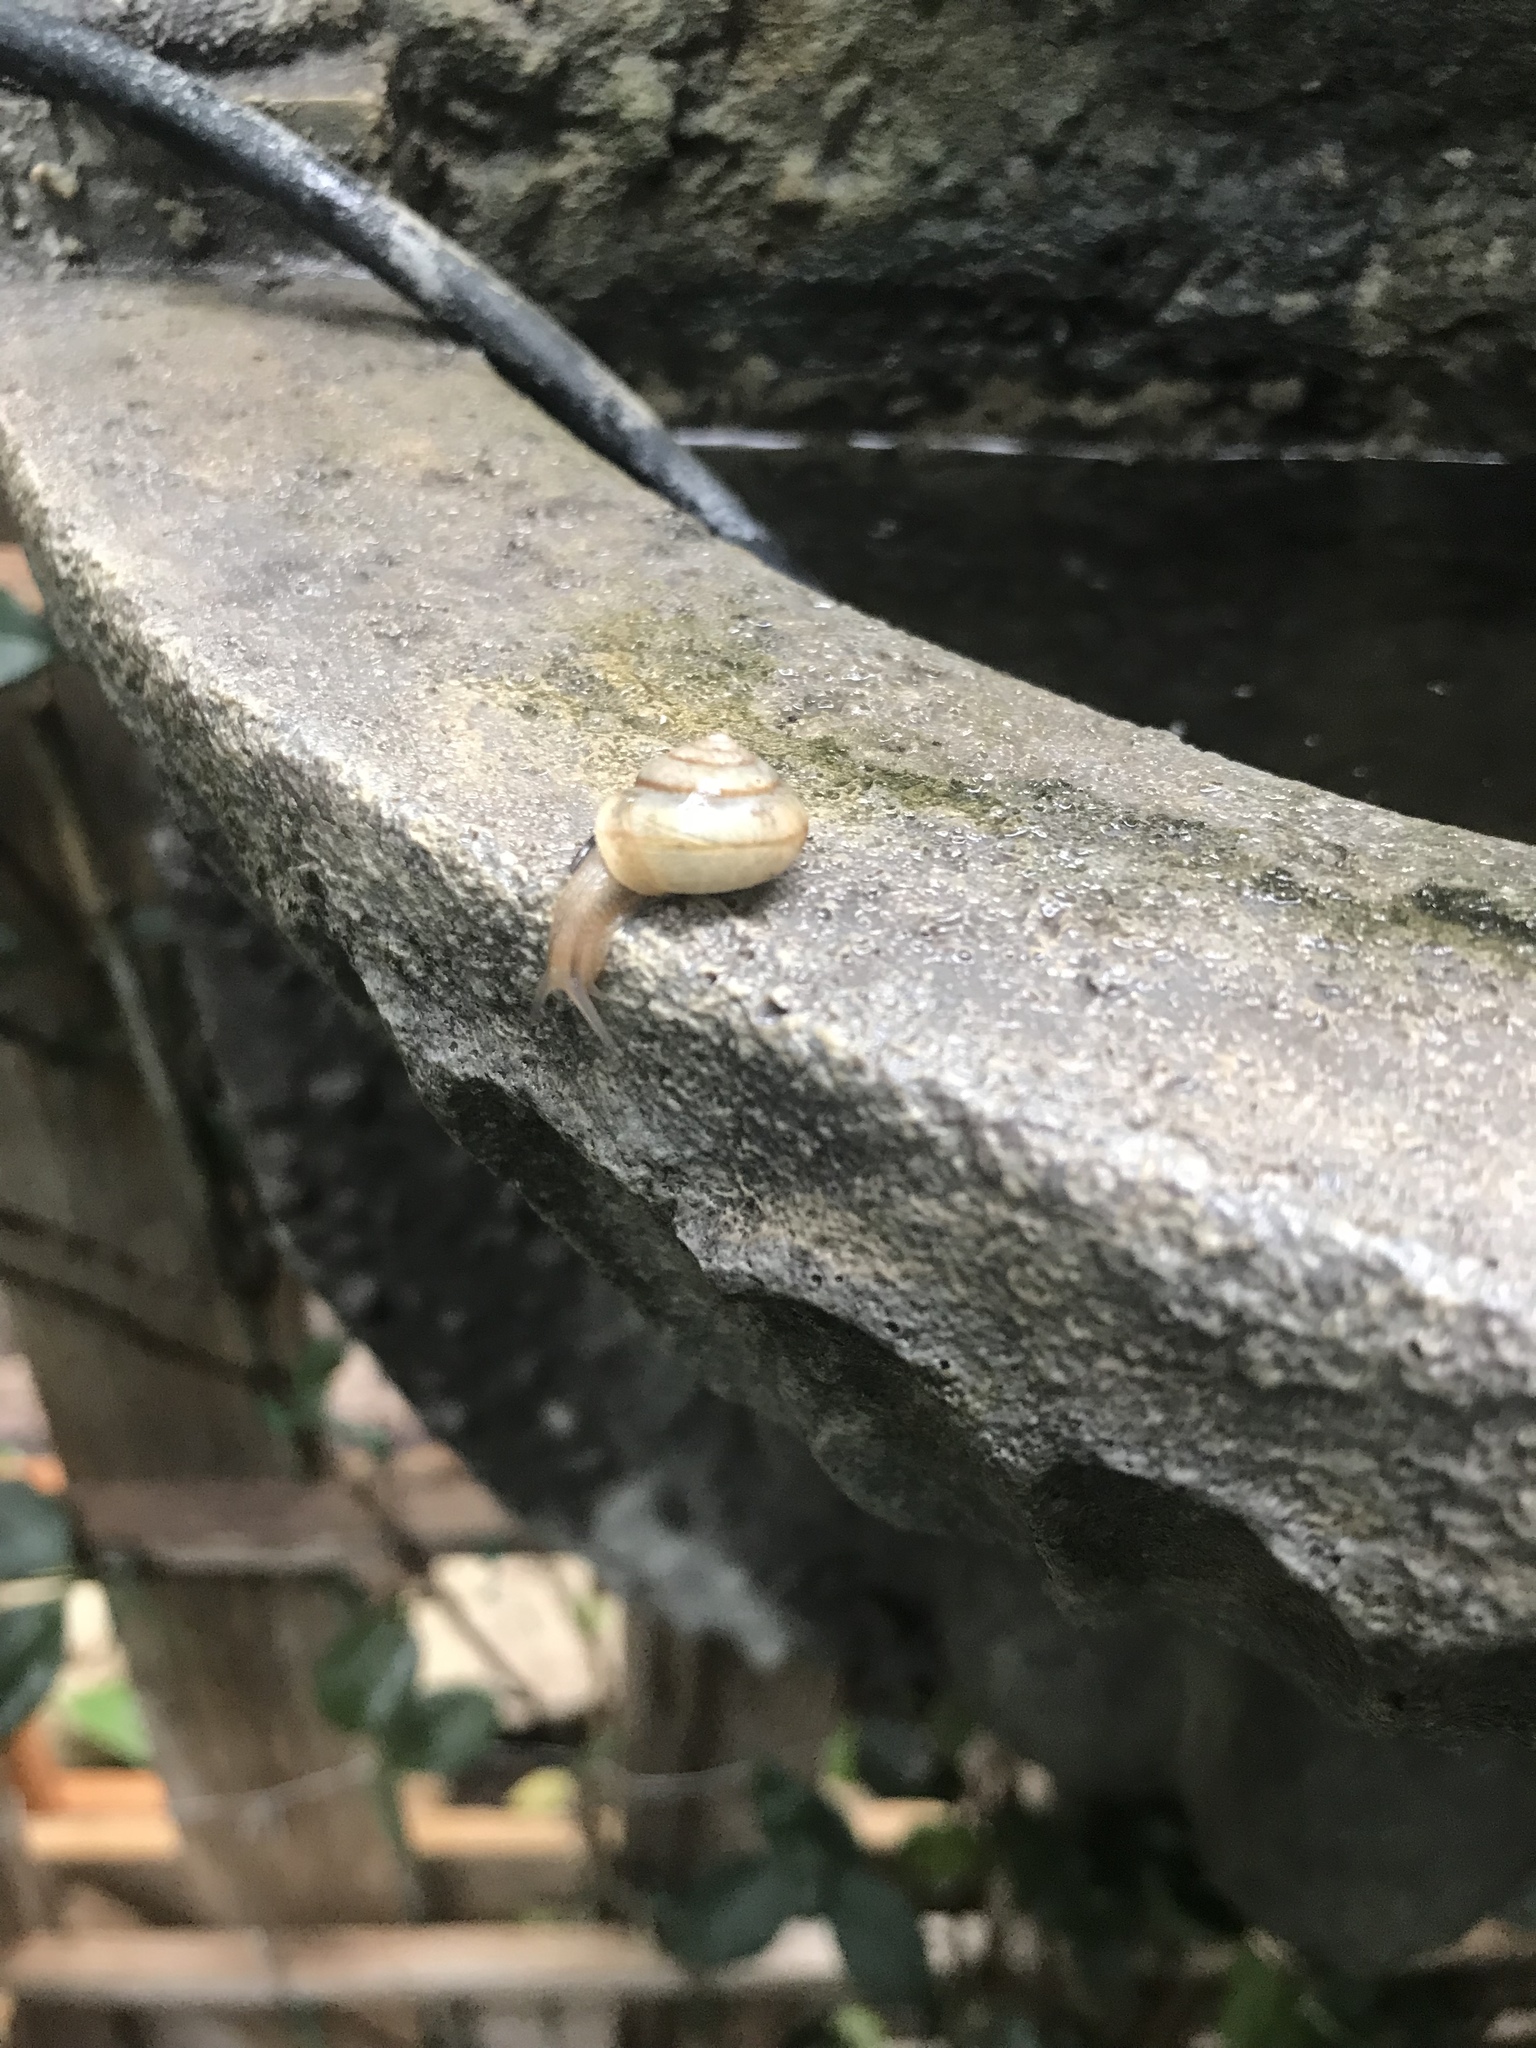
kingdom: Animalia
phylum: Mollusca
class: Gastropoda
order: Stylommatophora
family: Camaenidae
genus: Bradybaena
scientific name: Bradybaena similaris
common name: Asian trampsnail
